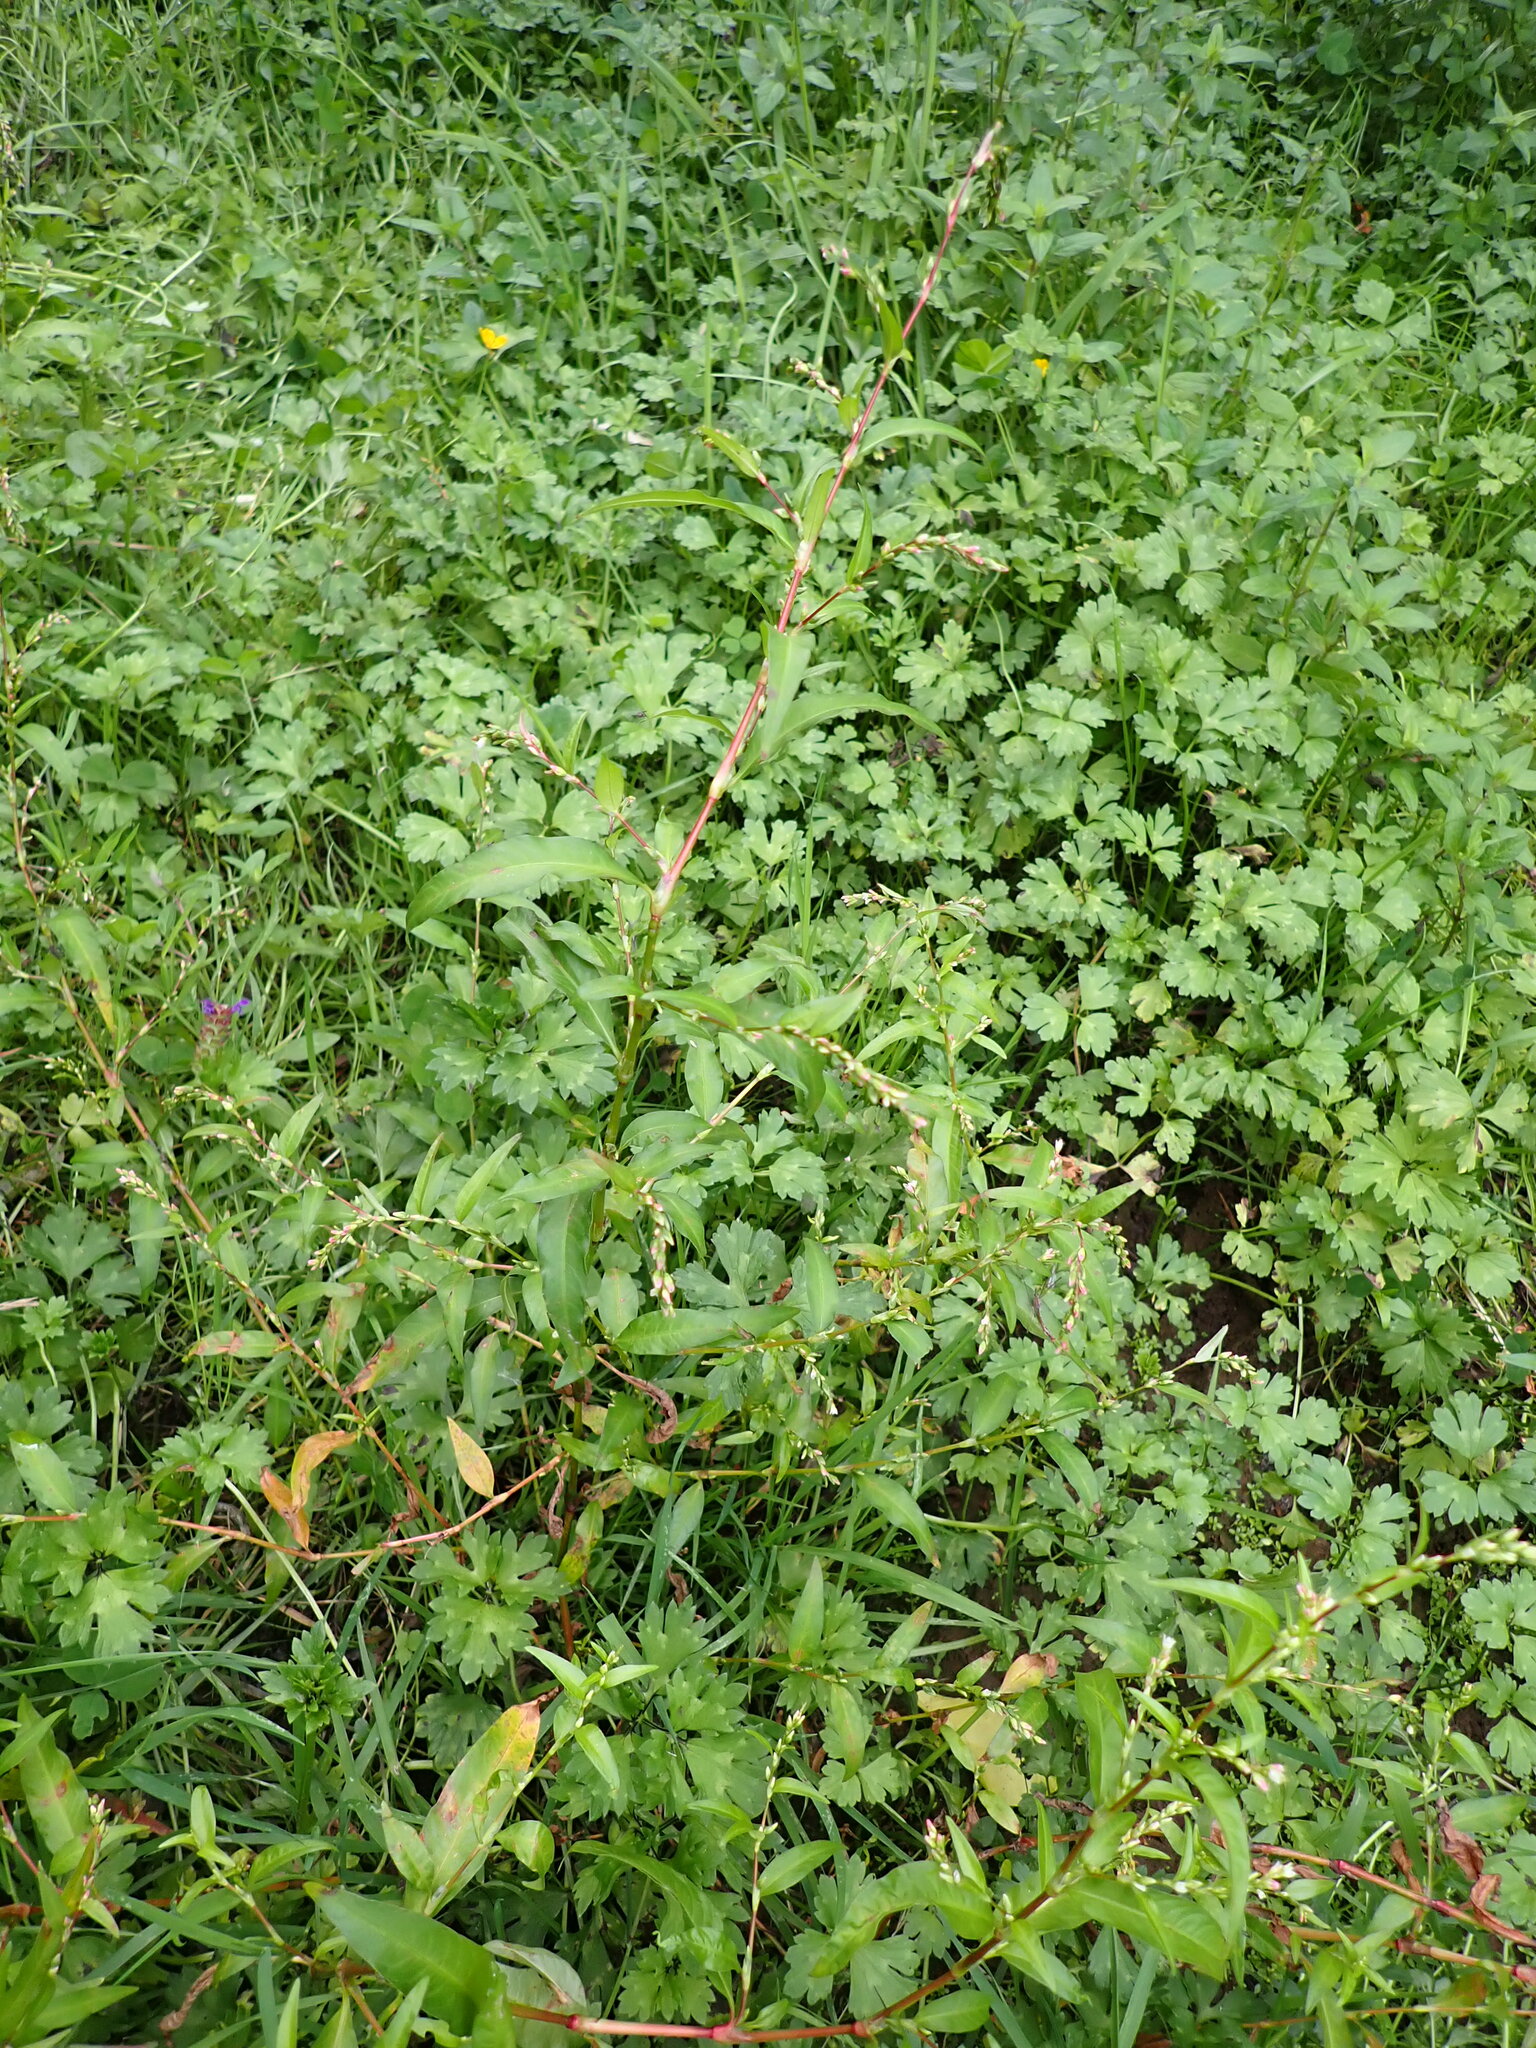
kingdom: Plantae
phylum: Tracheophyta
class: Magnoliopsida
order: Caryophyllales
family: Polygonaceae
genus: Persicaria
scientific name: Persicaria hydropiper
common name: Water-pepper
